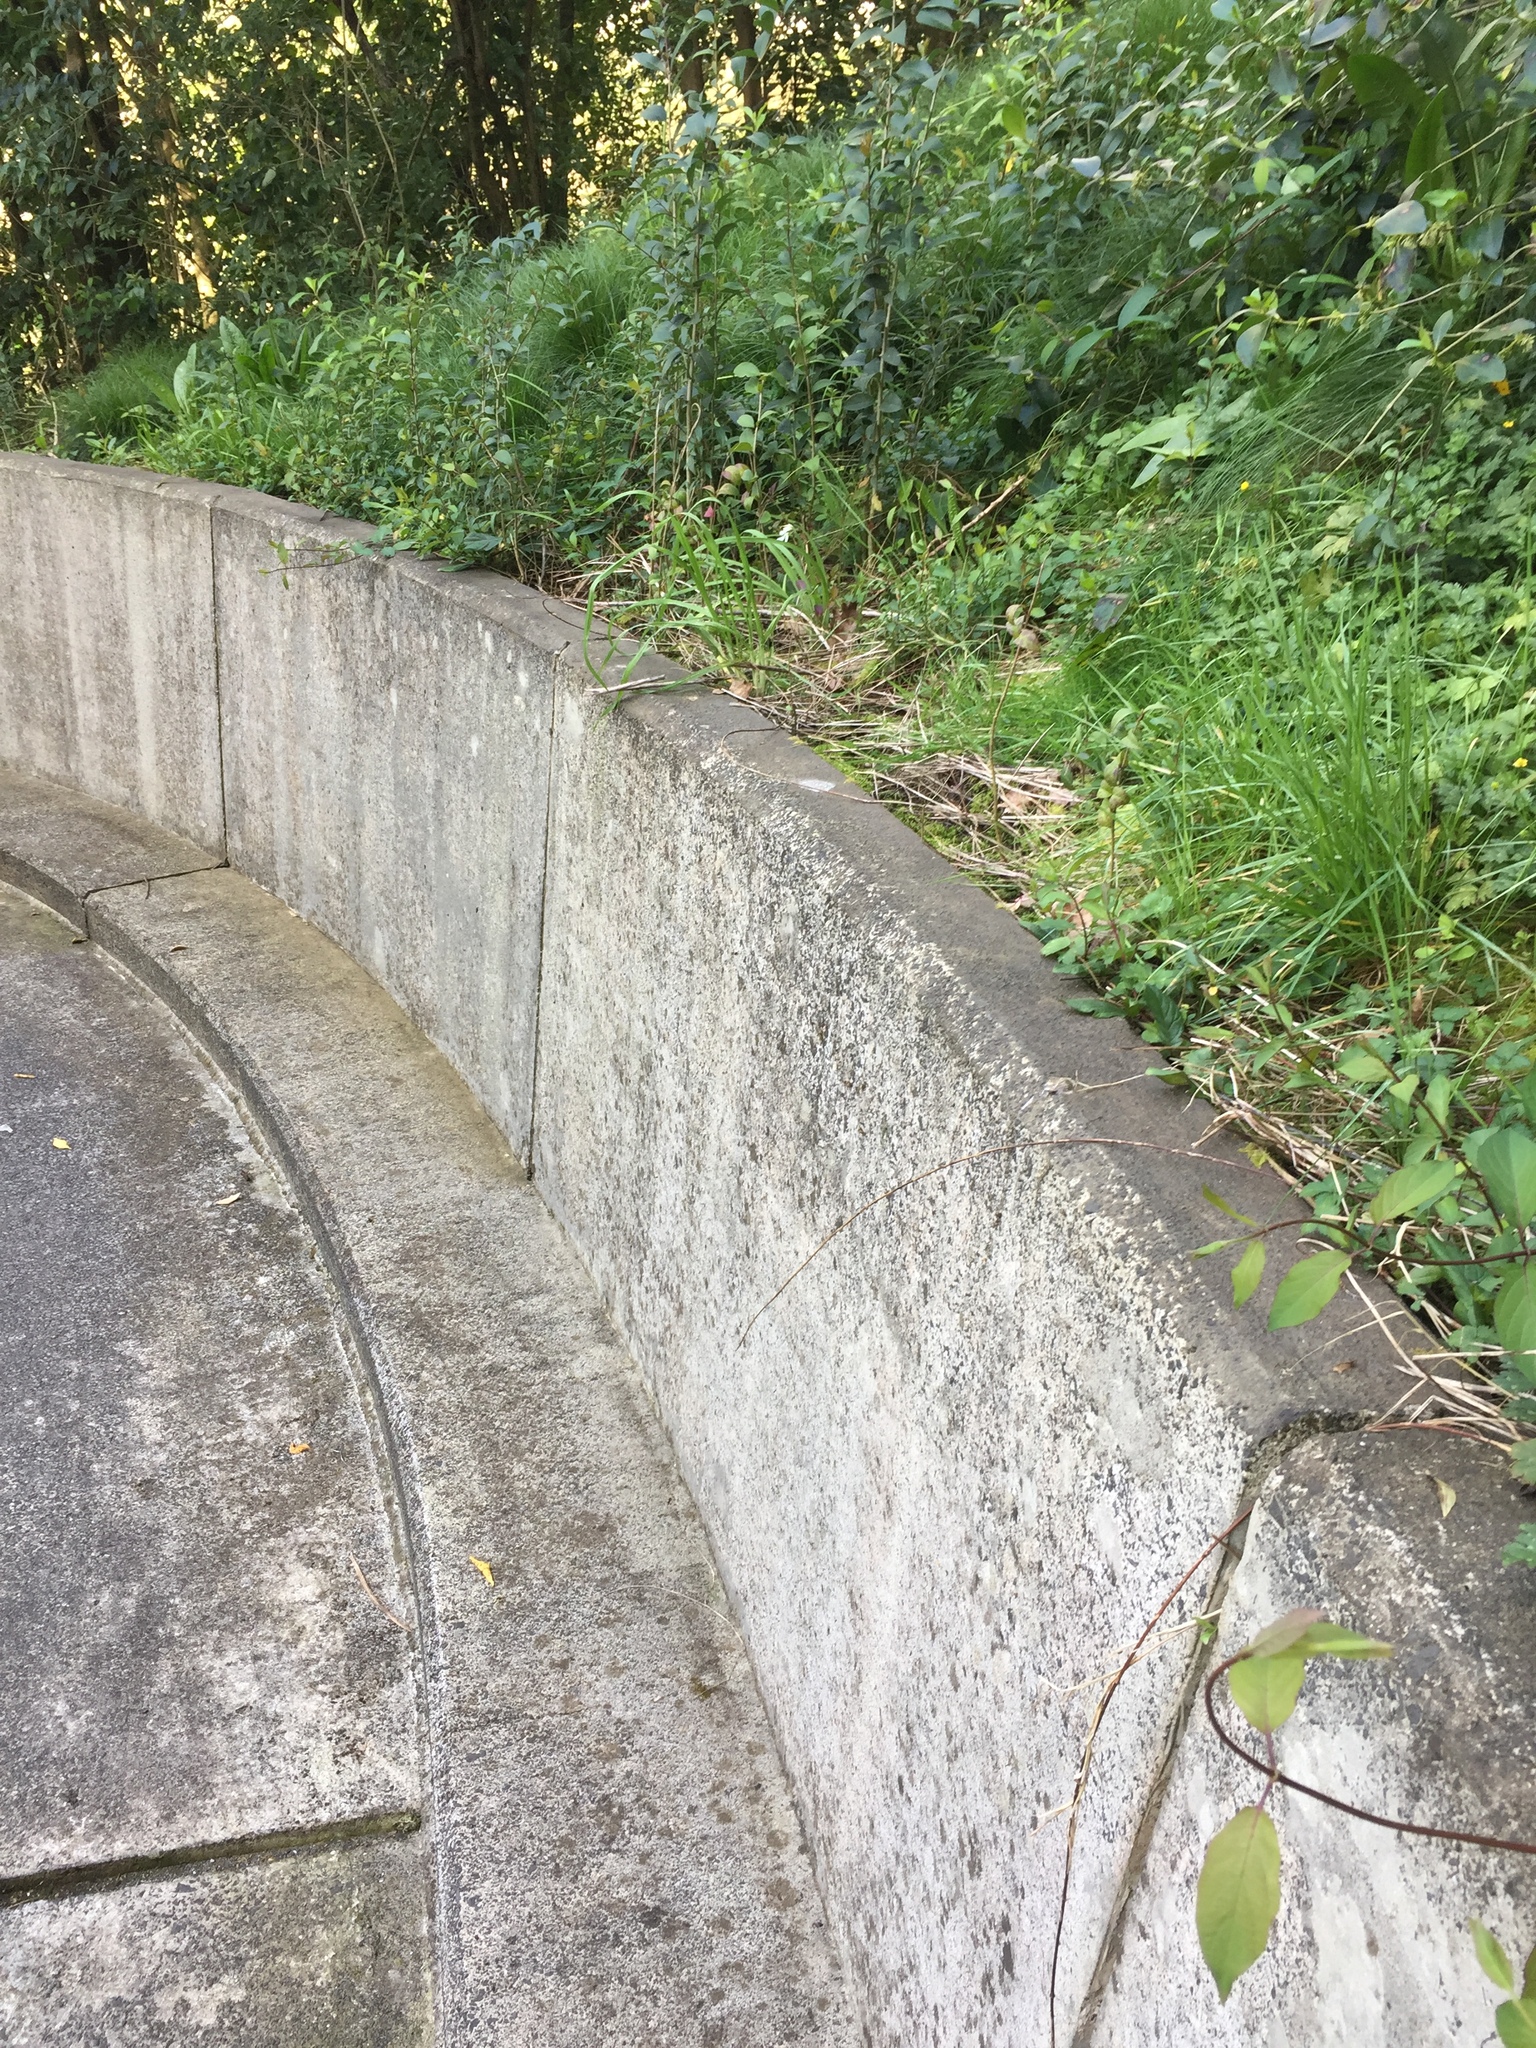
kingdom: Plantae
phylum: Bryophyta
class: Bryopsida
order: Dicranales
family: Fissidentaceae
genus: Fissidens
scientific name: Fissidens taxifolius
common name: Yew-leaved pocket moss
